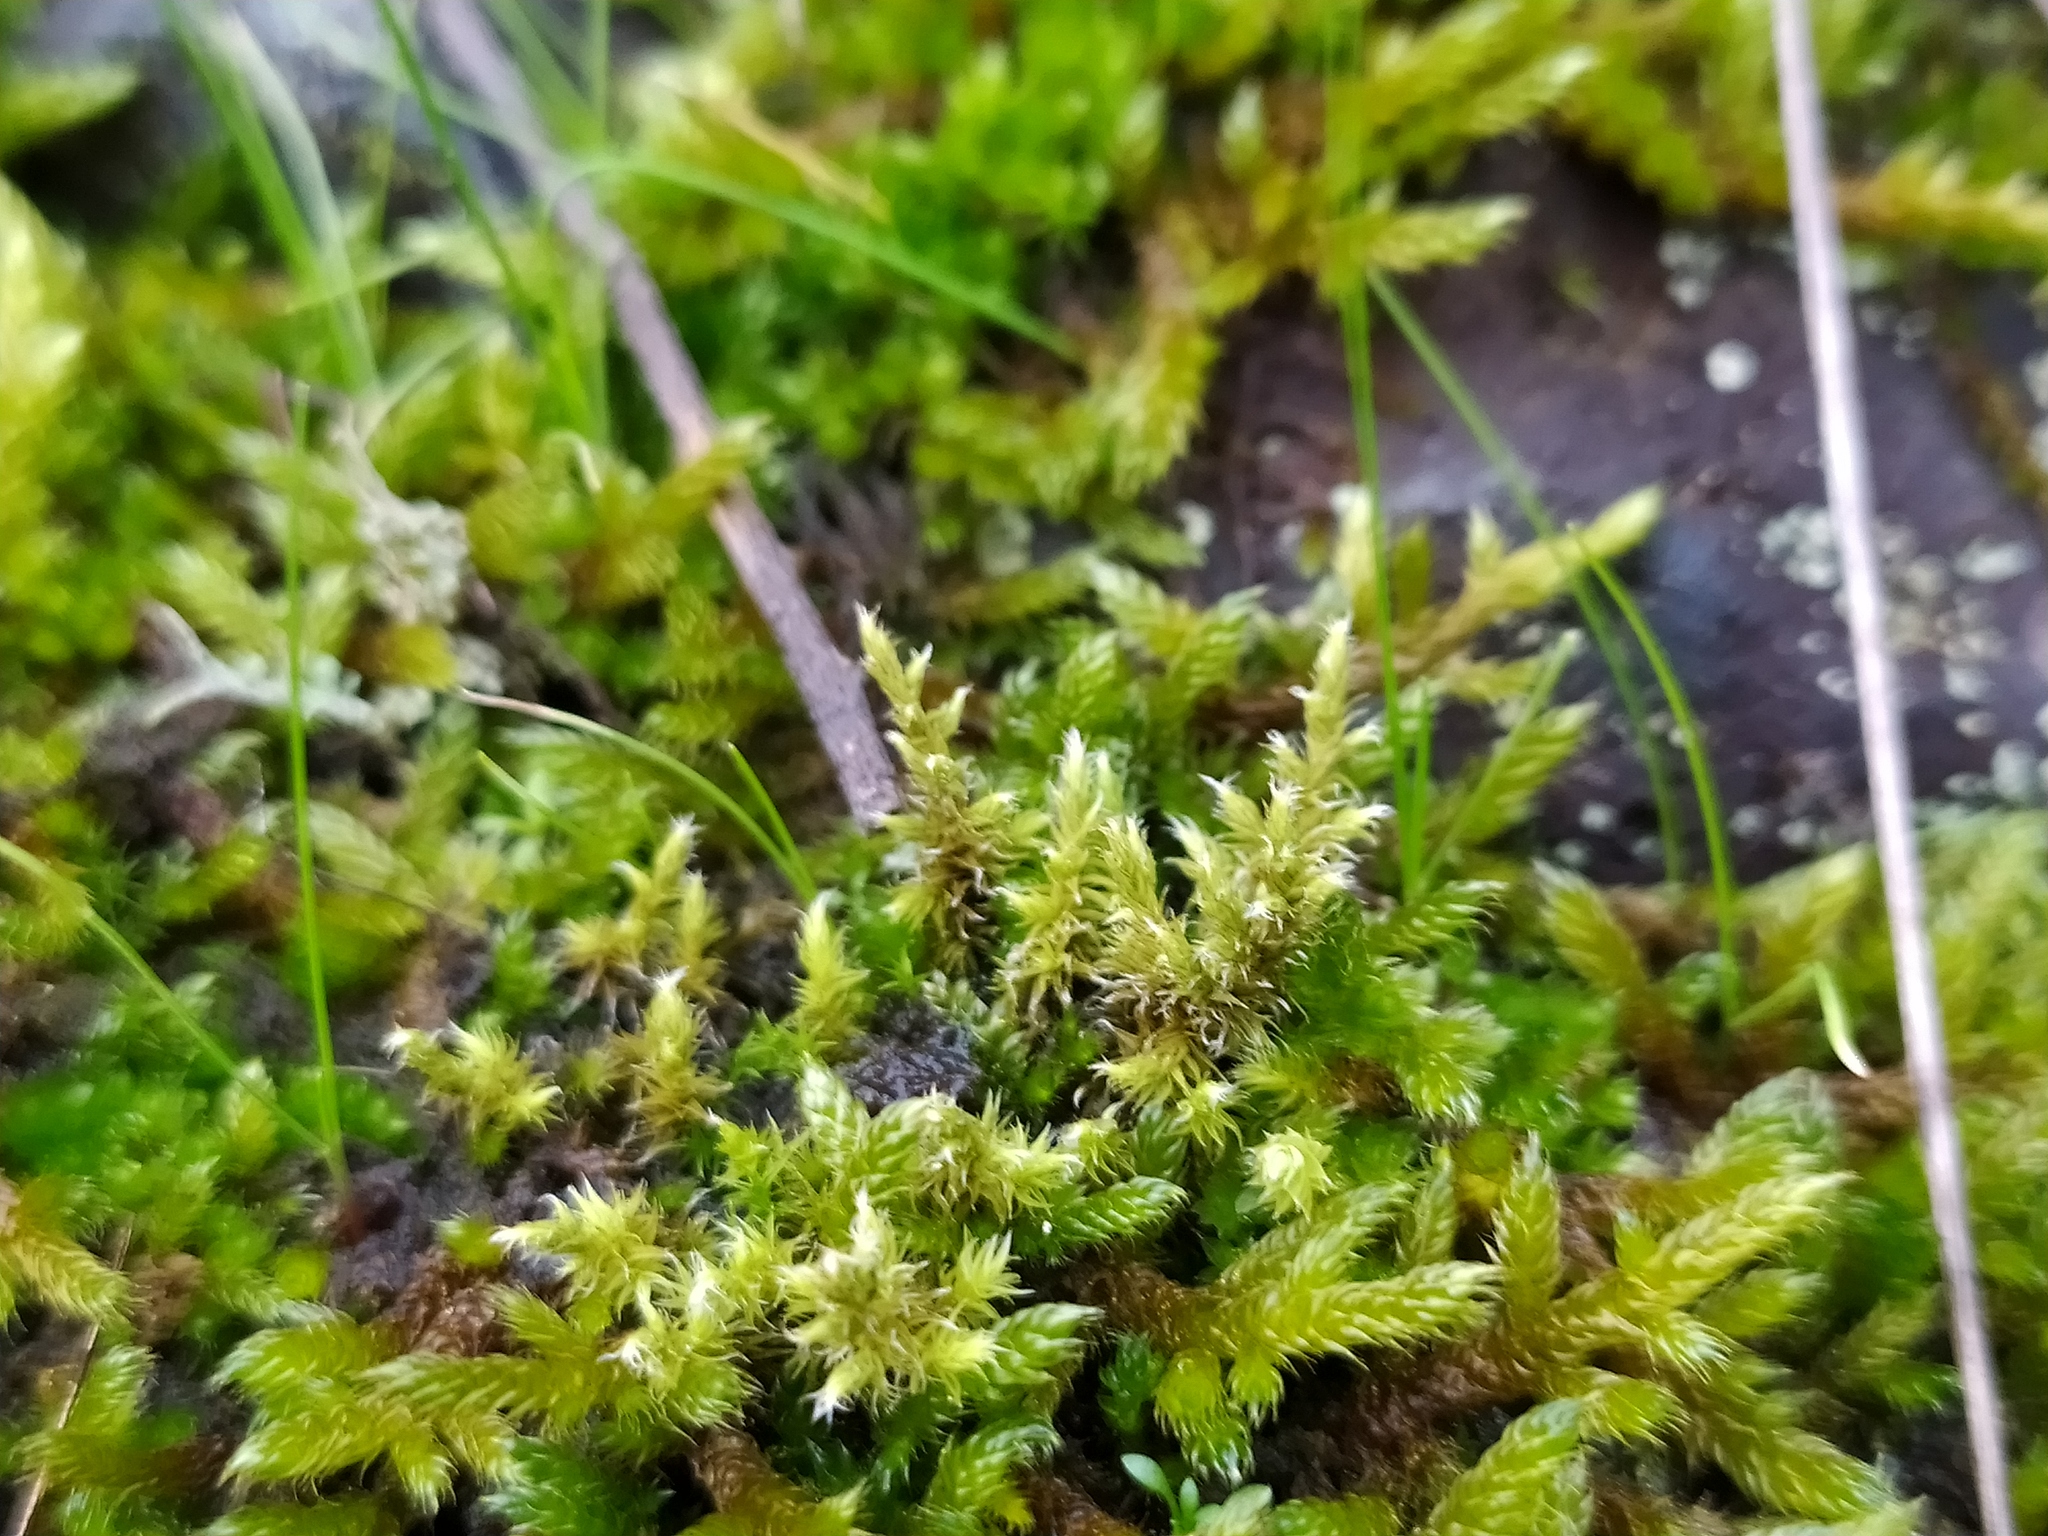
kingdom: Plantae
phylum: Bryophyta
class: Bryopsida
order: Grimmiales
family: Grimmiaceae
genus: Niphotrichum
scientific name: Niphotrichum elongatum
